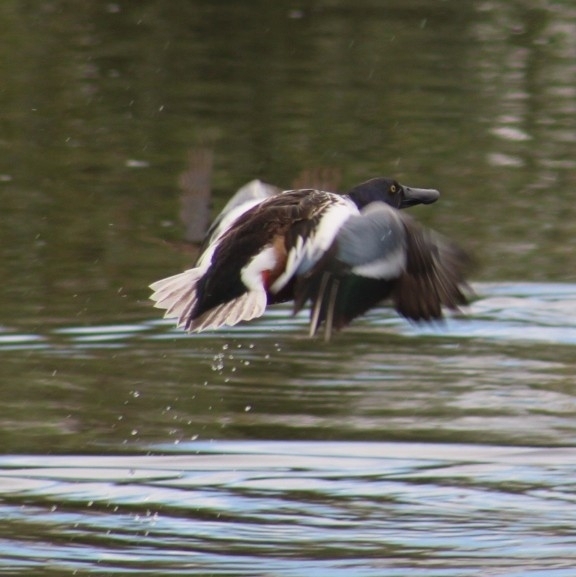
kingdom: Animalia
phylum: Chordata
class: Aves
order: Anseriformes
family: Anatidae
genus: Spatula
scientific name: Spatula clypeata
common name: Northern shoveler
